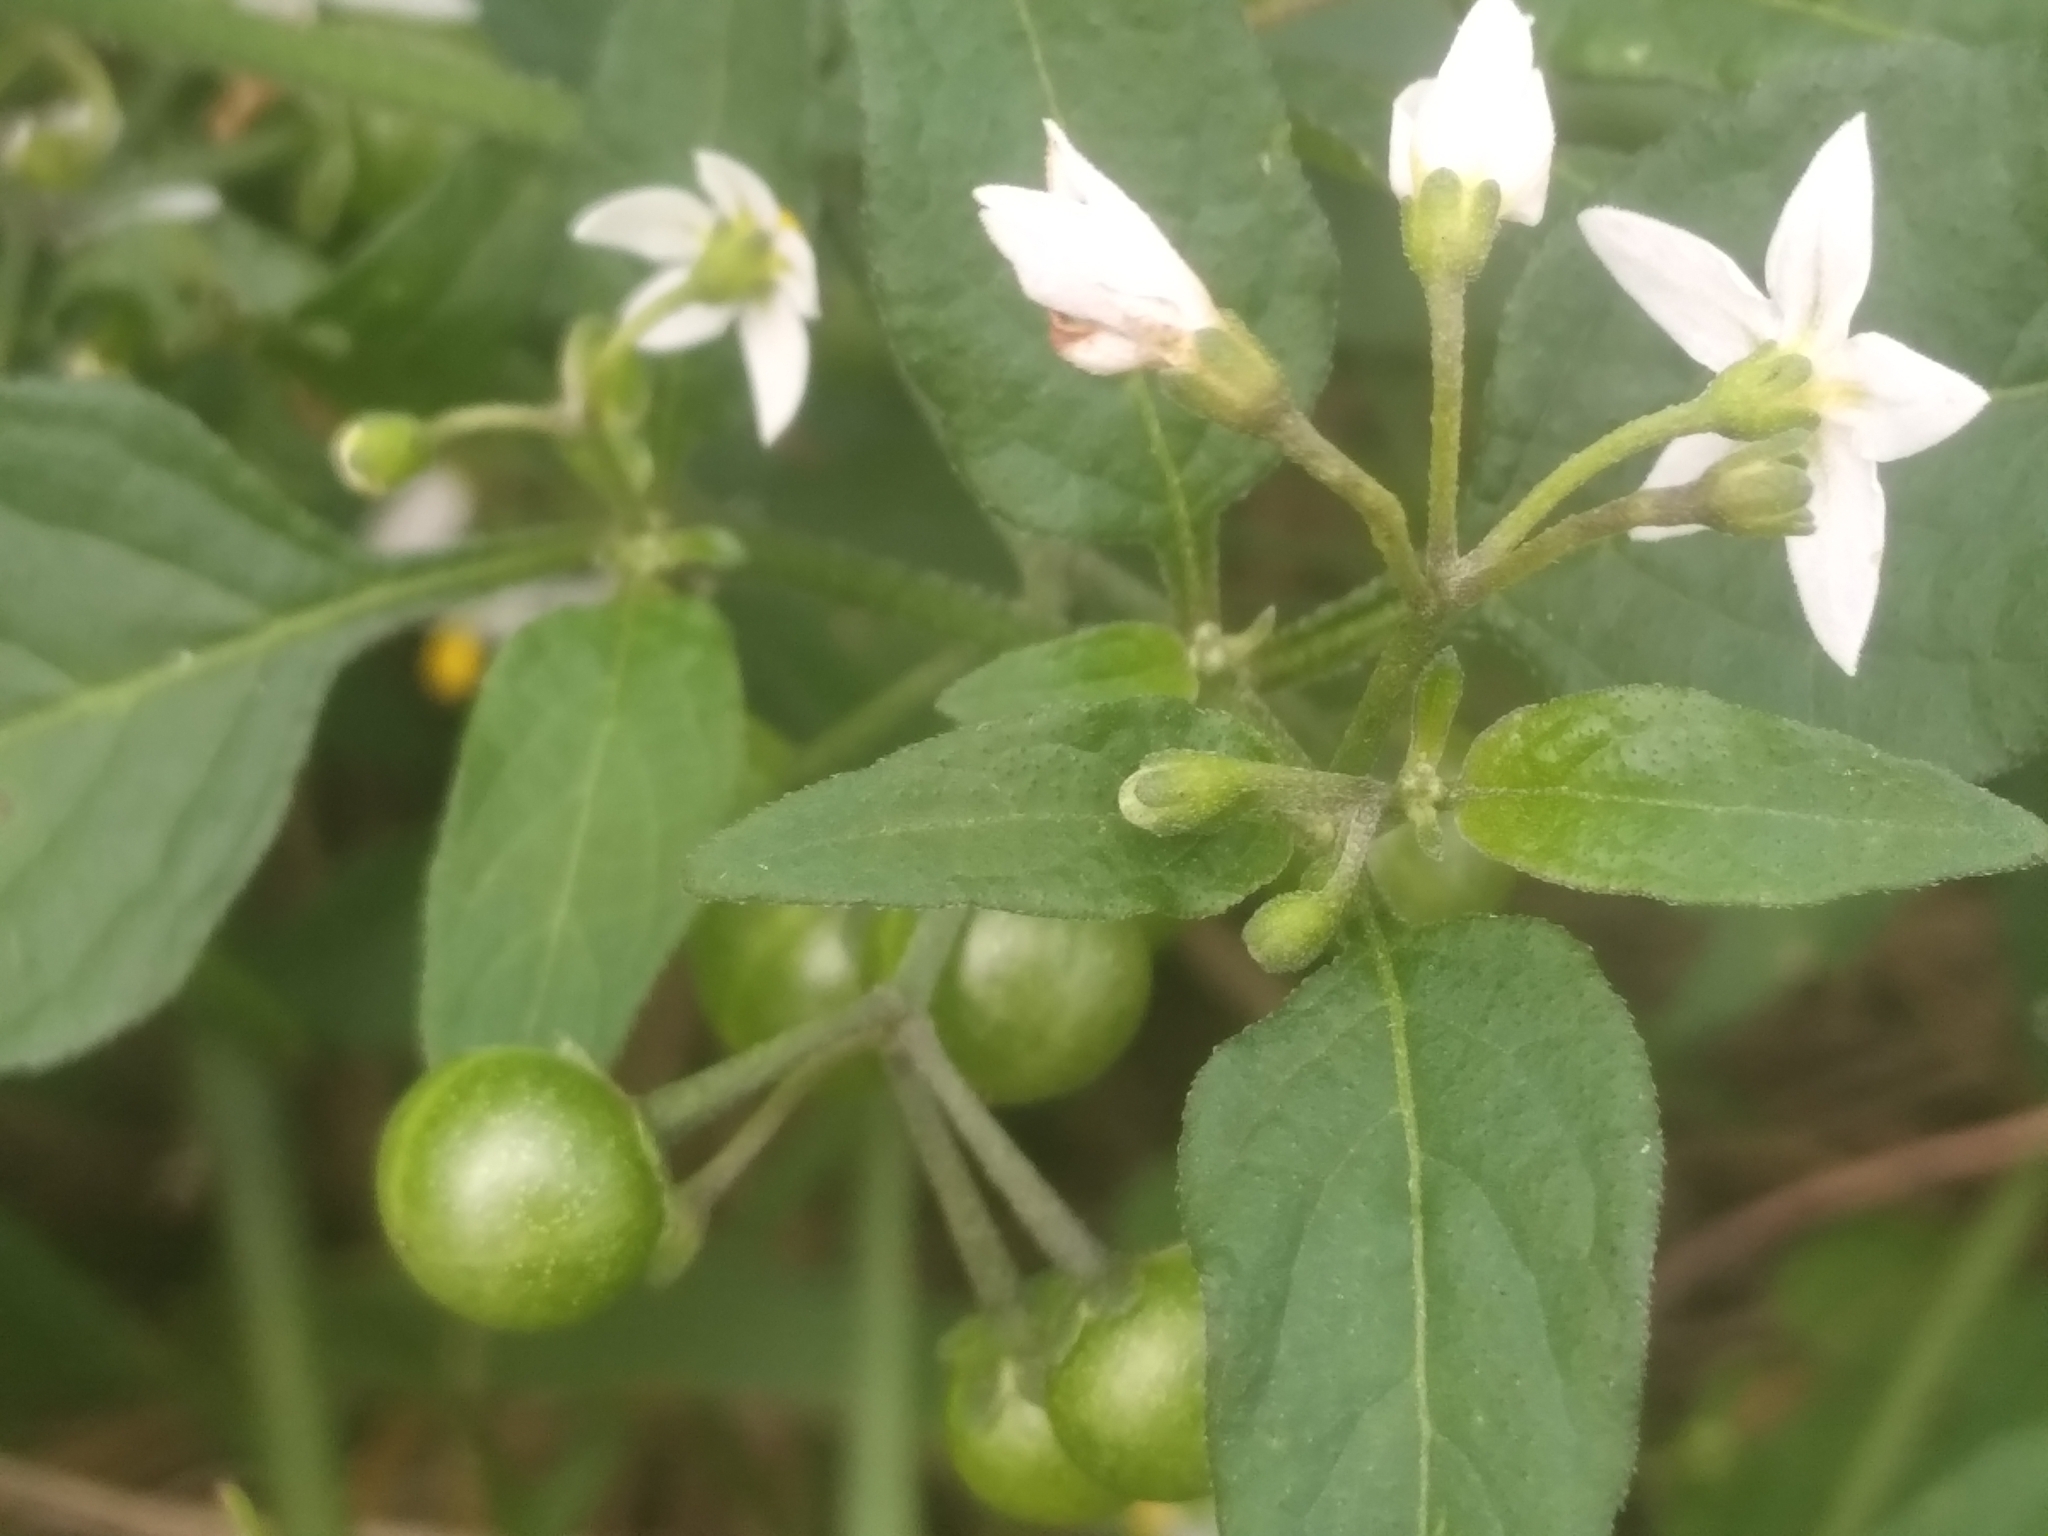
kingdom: Plantae
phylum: Tracheophyta
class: Magnoliopsida
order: Solanales
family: Solanaceae
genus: Solanum
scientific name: Solanum americanum
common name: American black nightshade
